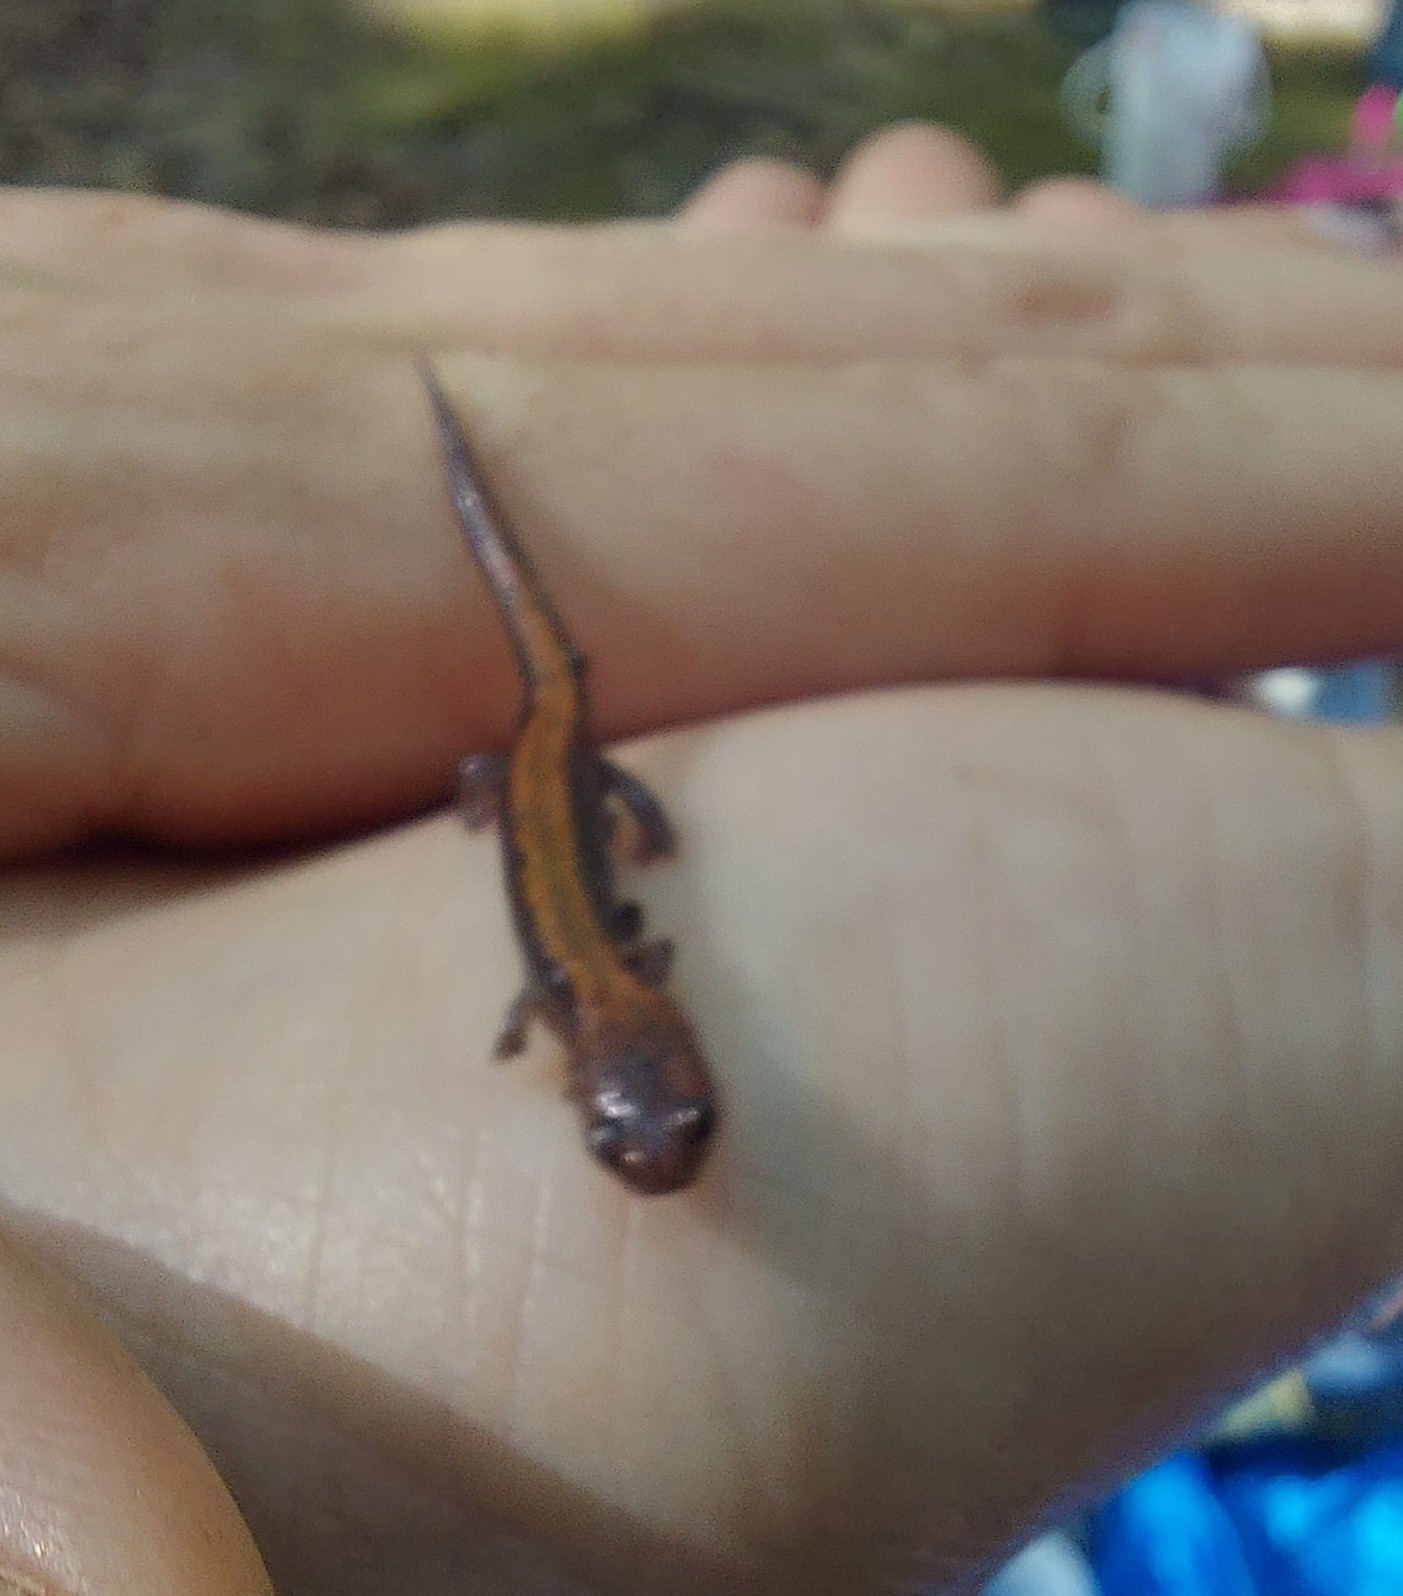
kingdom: Animalia
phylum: Chordata
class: Amphibia
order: Caudata
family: Plethodontidae
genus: Plethodon
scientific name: Plethodon cinereus
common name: Redback salamander
